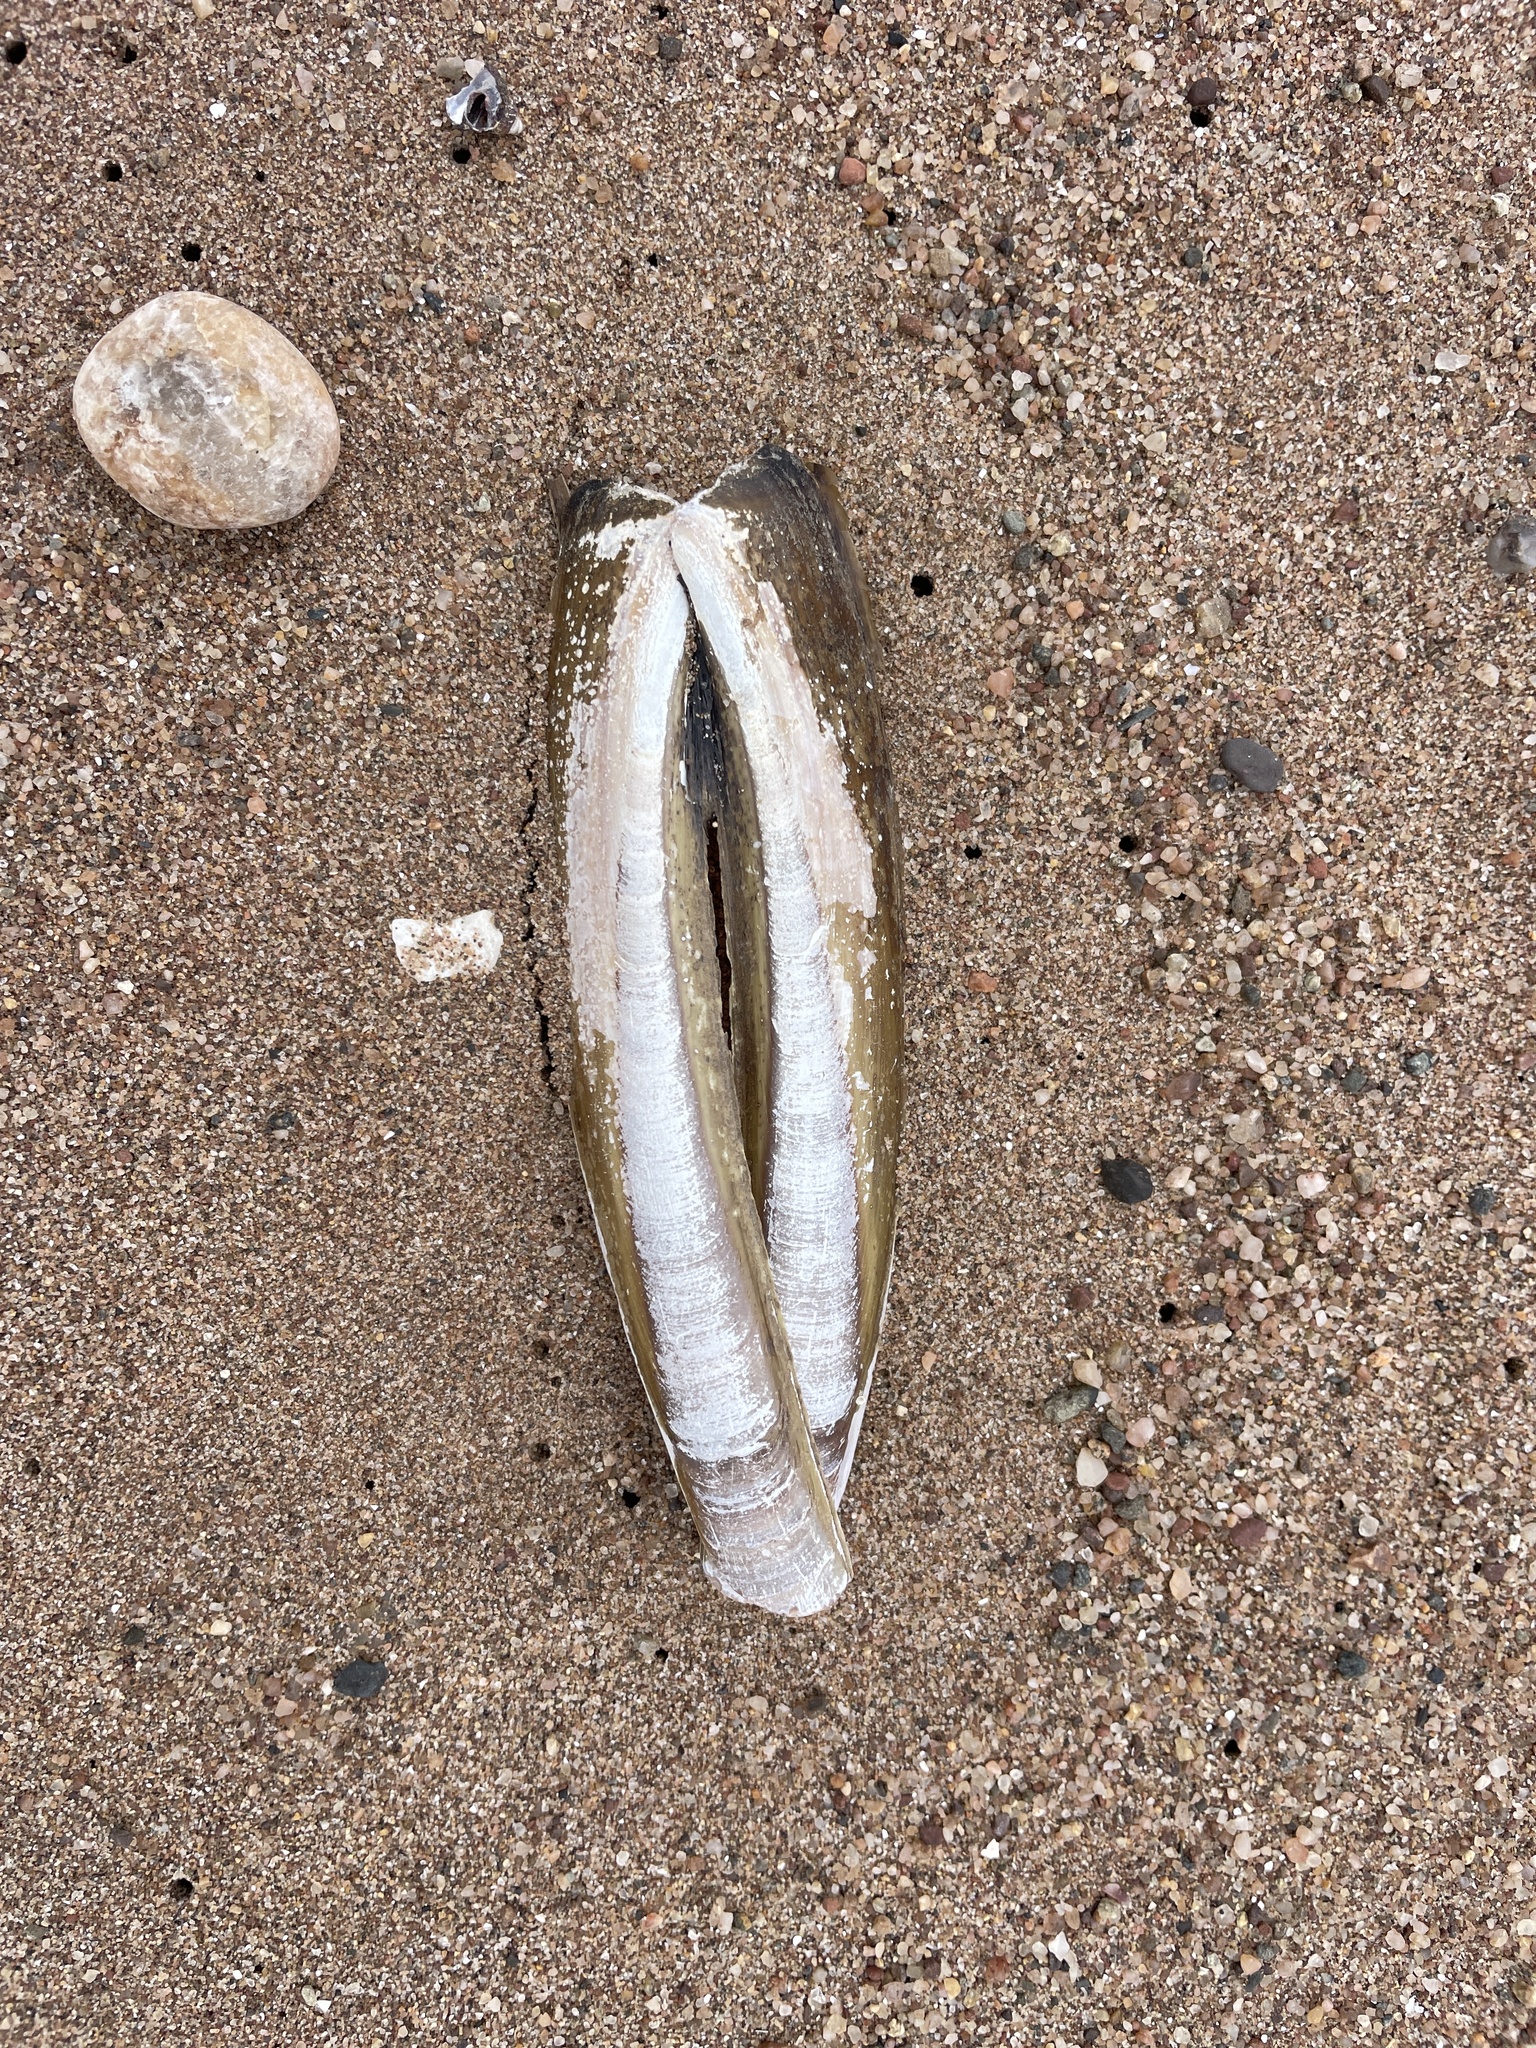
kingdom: Animalia
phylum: Mollusca
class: Bivalvia
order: Adapedonta
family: Pharidae
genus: Ensis
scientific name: Ensis leei
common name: American jack knife clam
